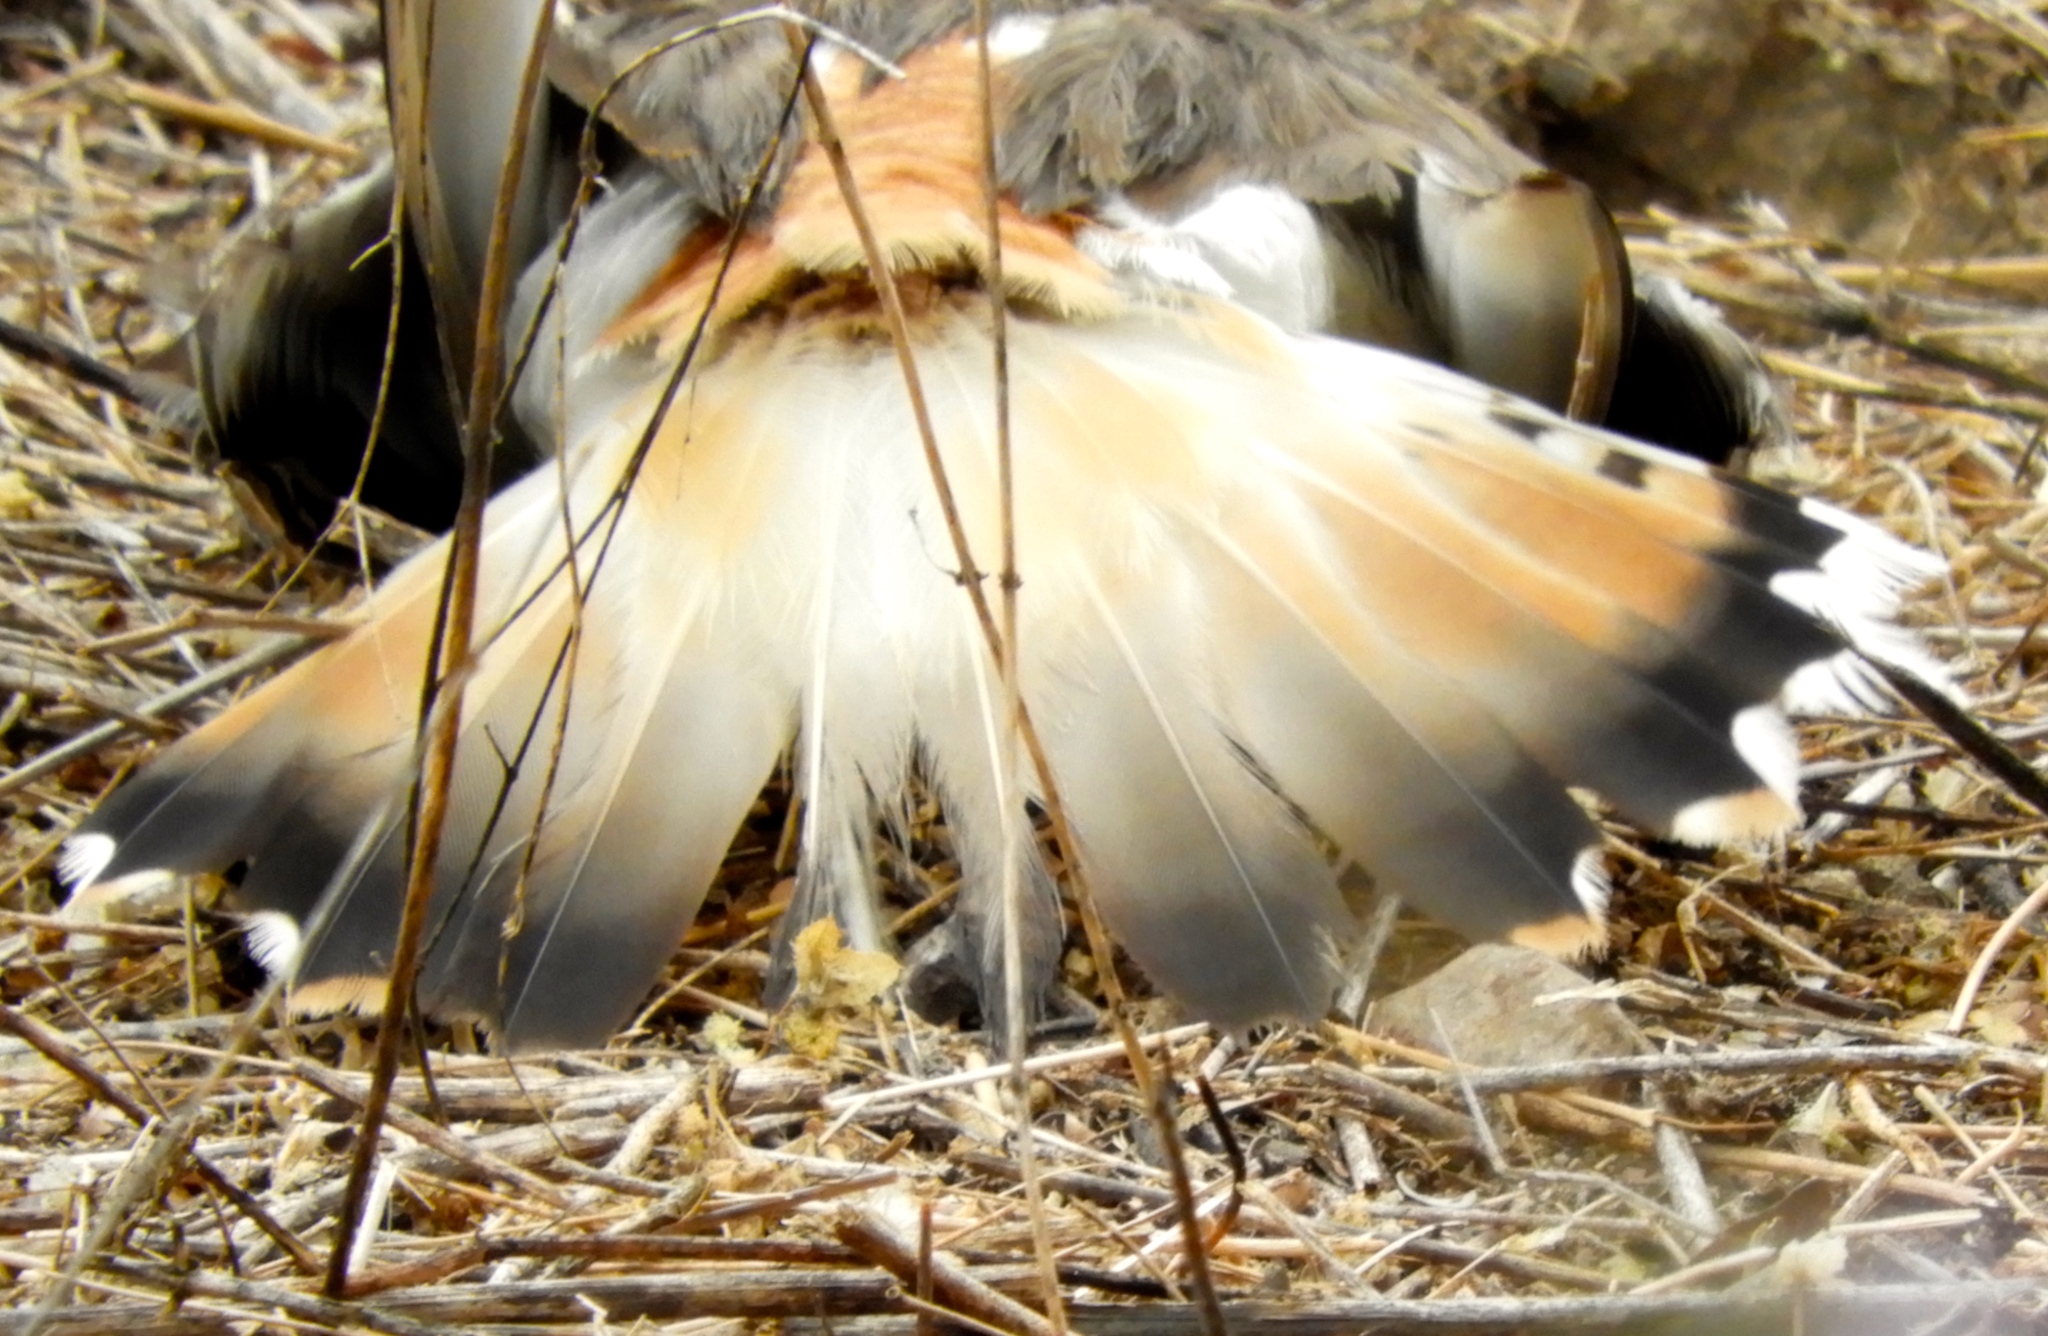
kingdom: Animalia
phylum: Chordata
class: Aves
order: Charadriiformes
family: Charadriidae
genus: Charadrius
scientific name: Charadrius vociferus
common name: Killdeer
